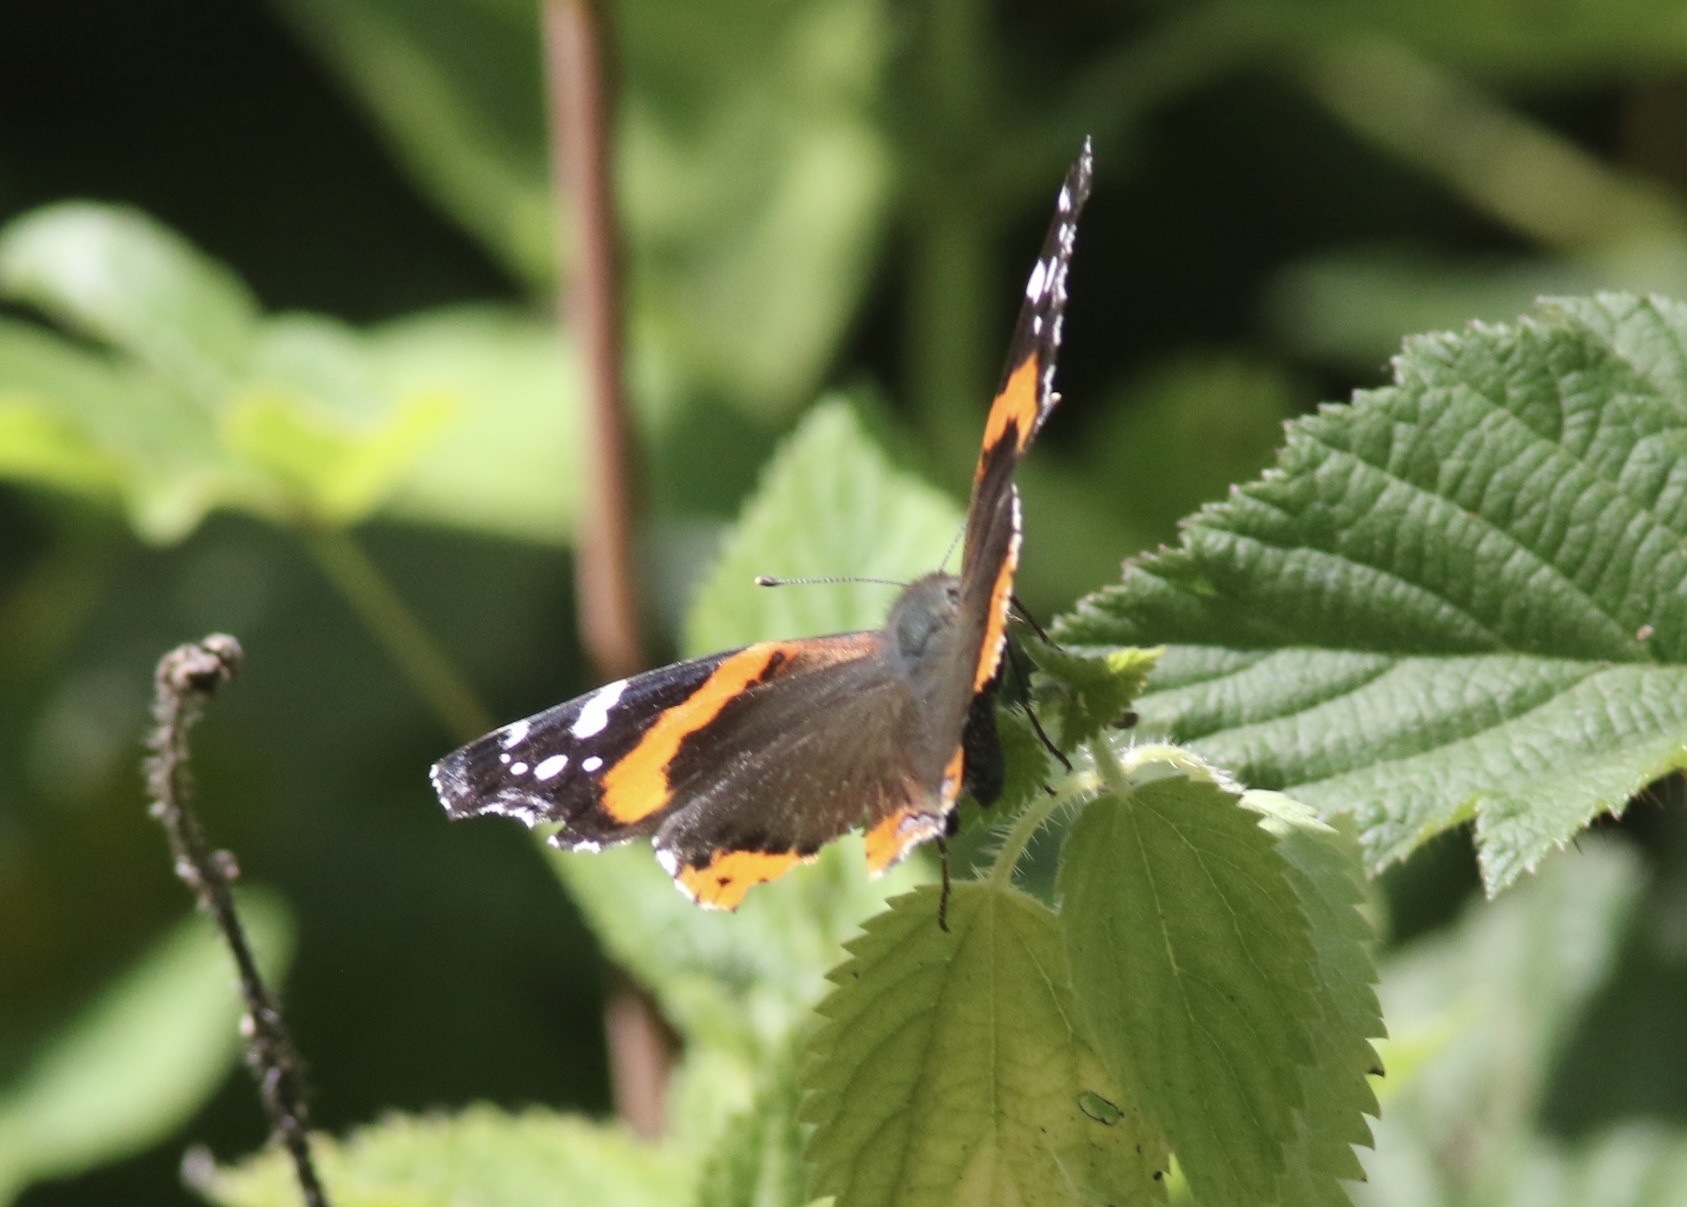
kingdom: Animalia
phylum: Arthropoda
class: Insecta
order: Lepidoptera
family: Nymphalidae
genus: Vanessa
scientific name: Vanessa atalanta
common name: Red admiral
